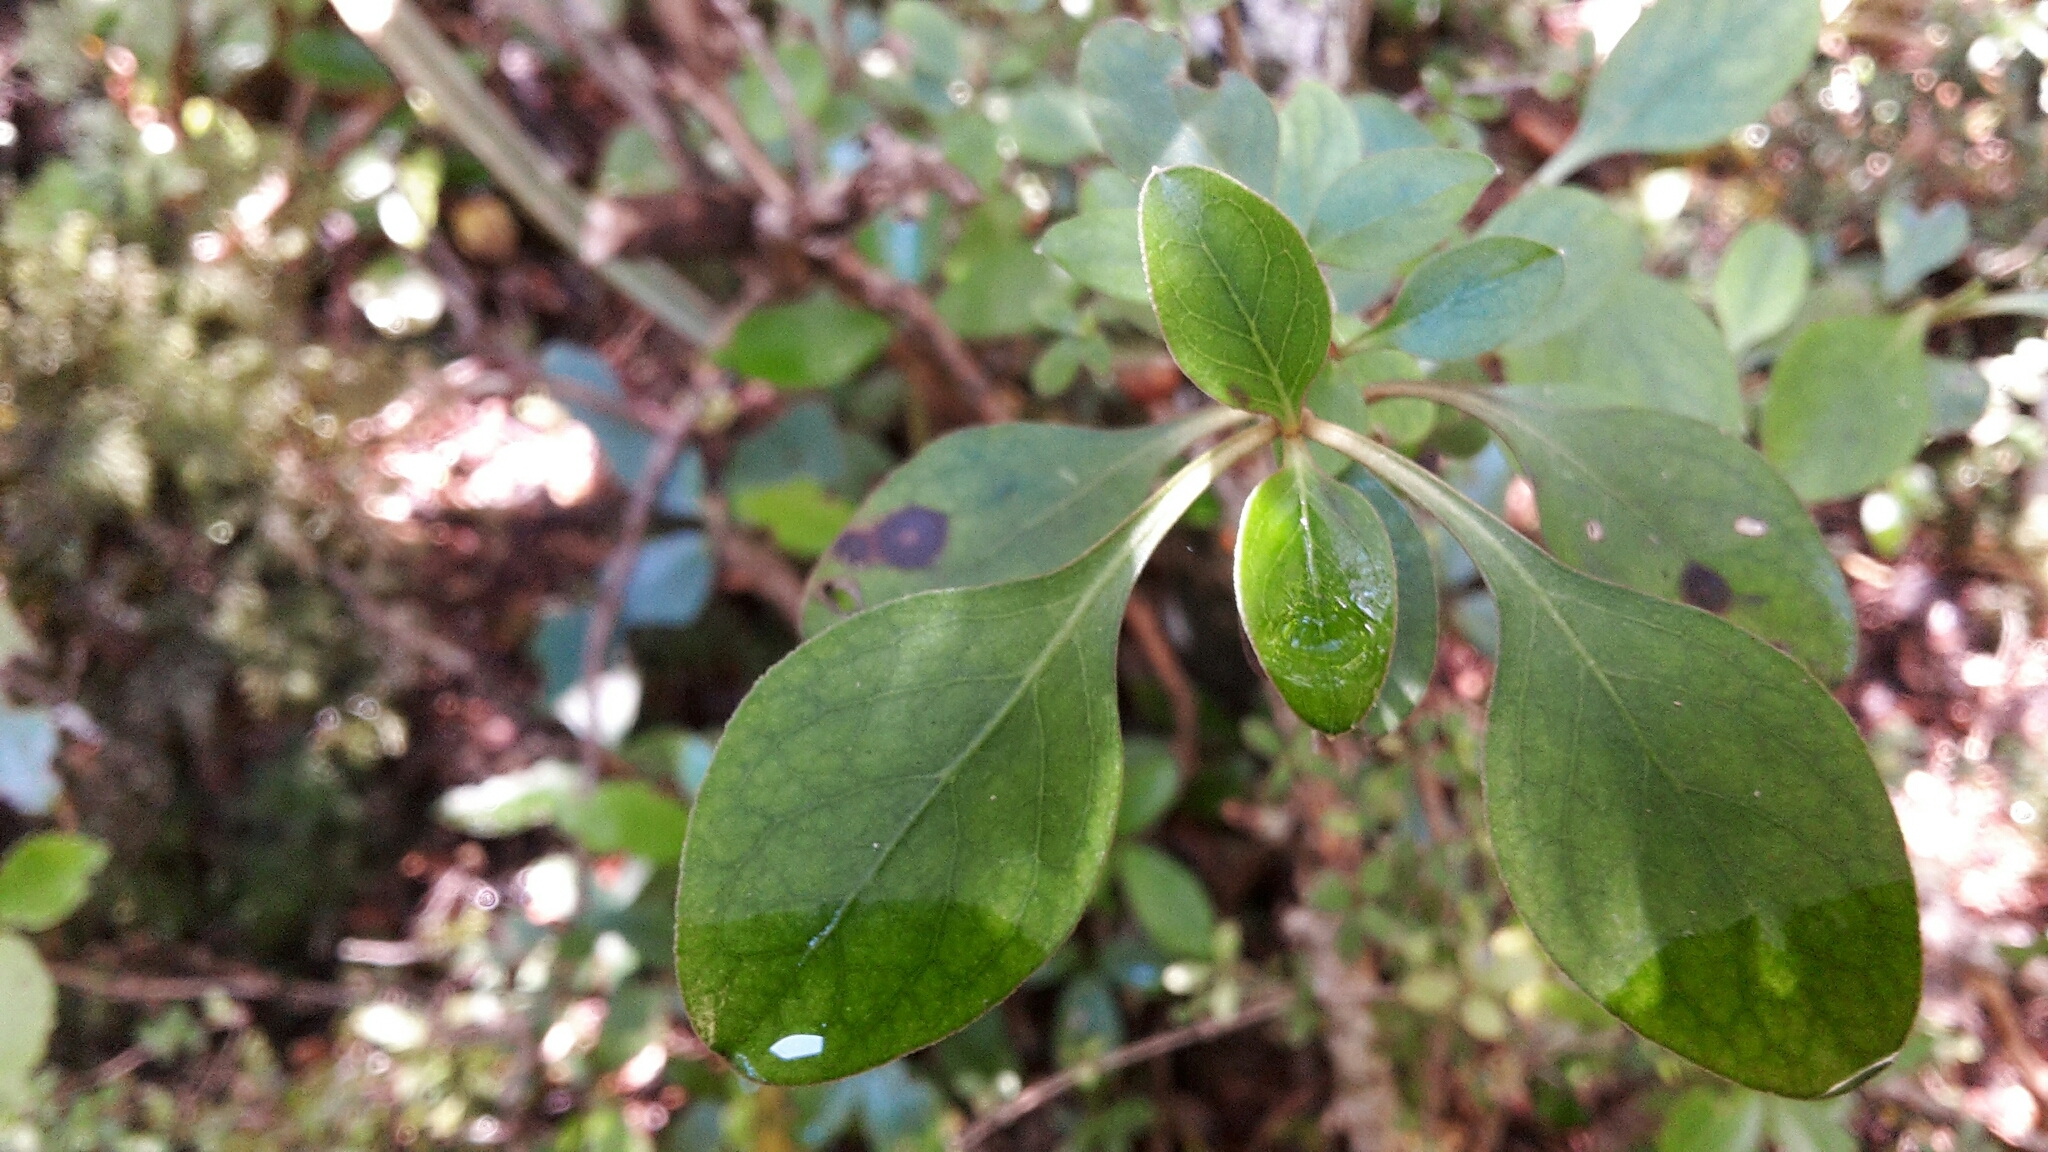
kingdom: Plantae
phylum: Tracheophyta
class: Magnoliopsida
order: Gentianales
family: Rubiaceae
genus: Coprosma
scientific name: Coprosma foetidissima
